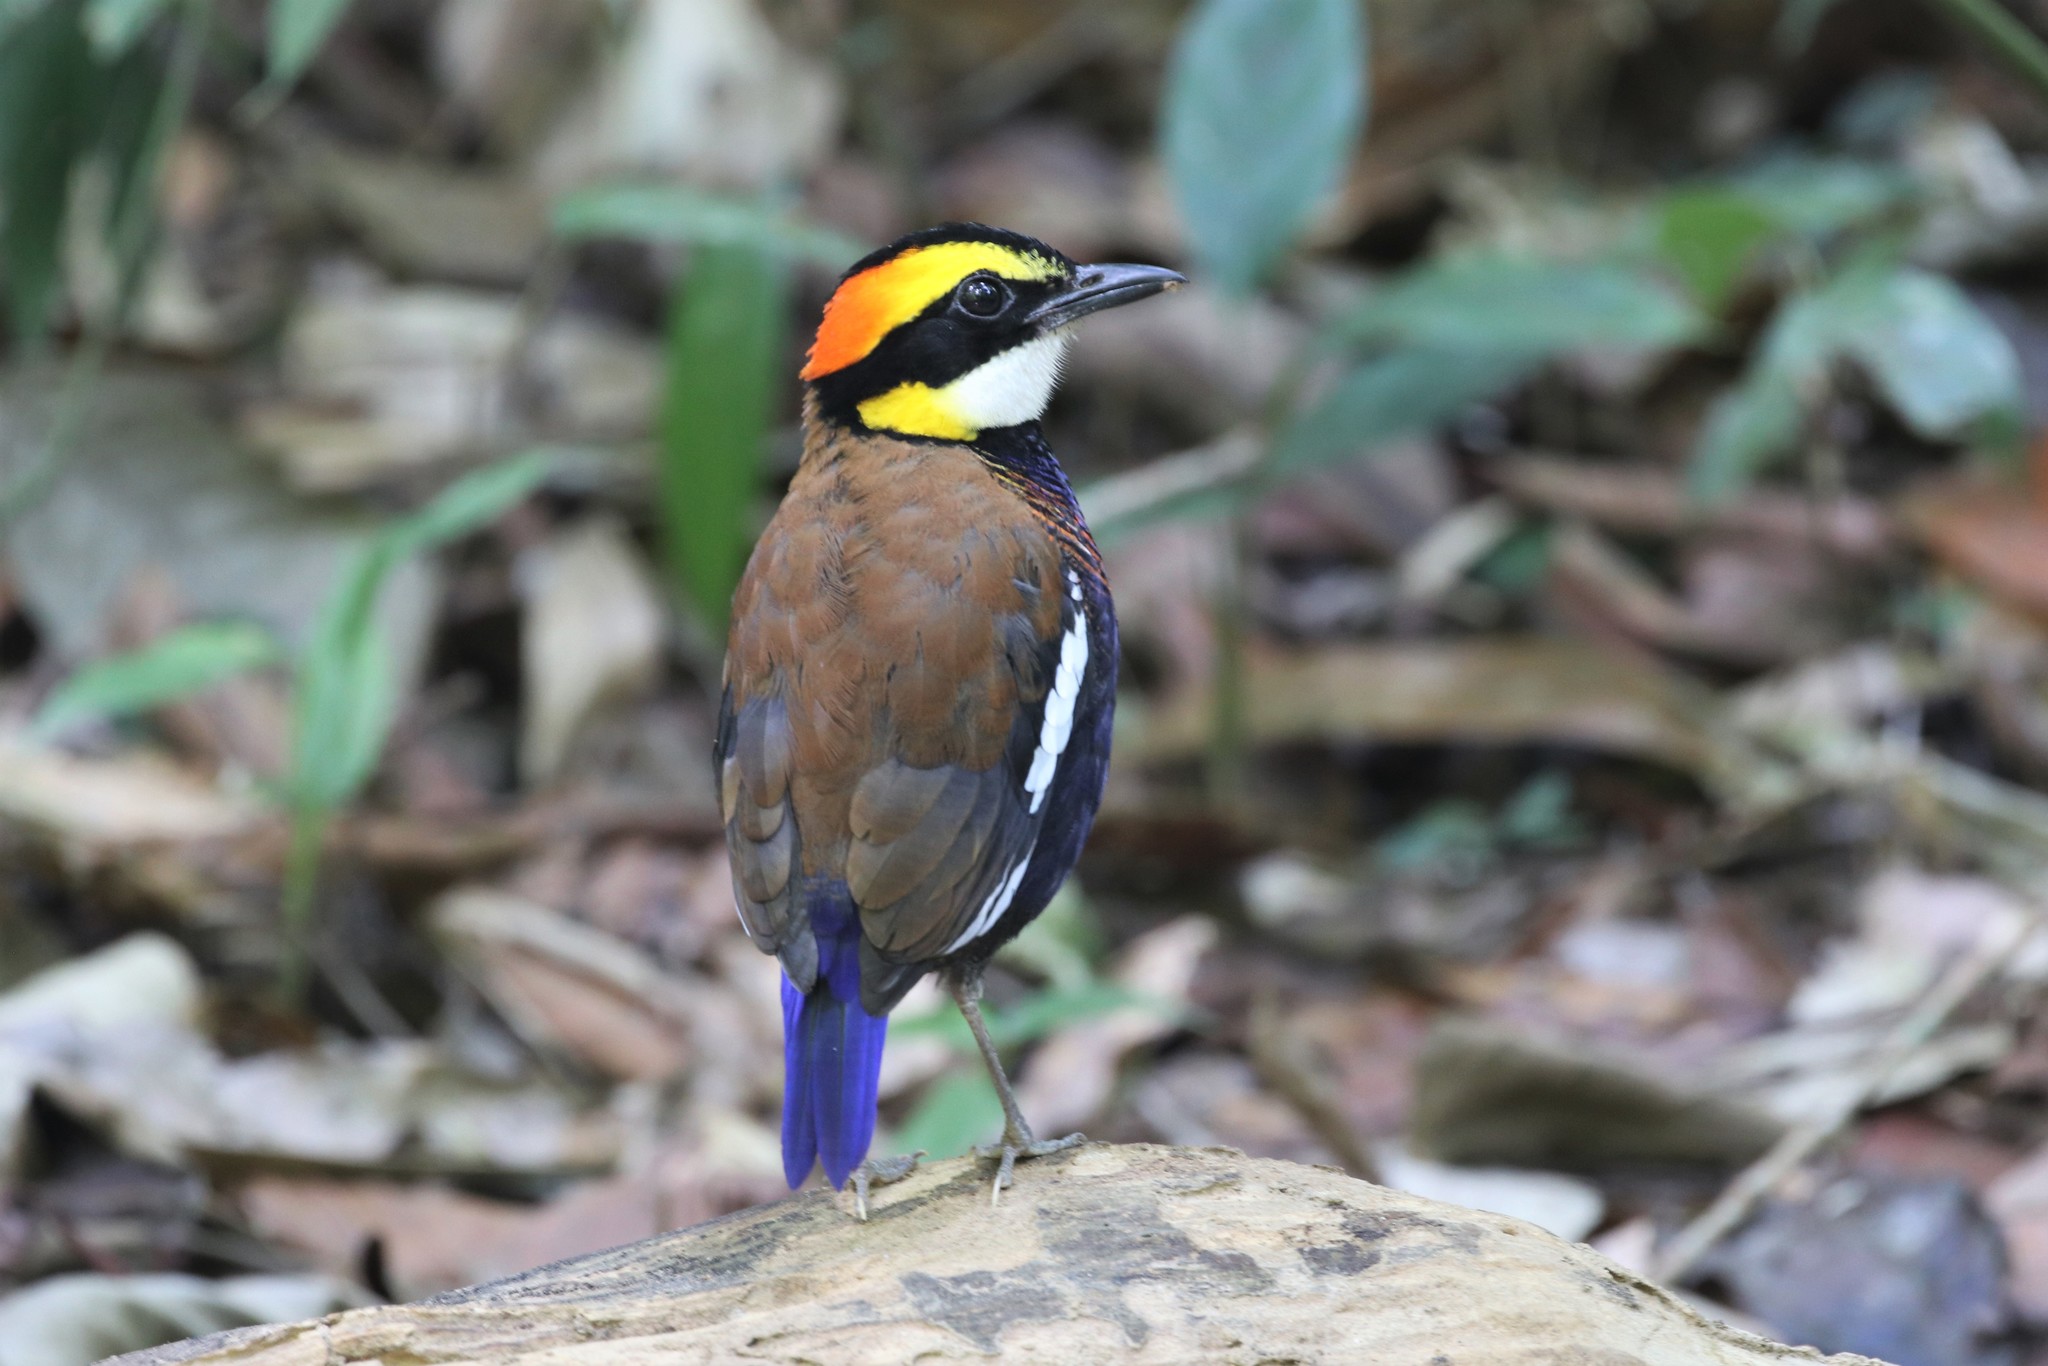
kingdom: Animalia
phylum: Chordata
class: Aves
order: Passeriformes
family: Pittidae
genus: Hydrornis
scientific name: Hydrornis irena
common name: Malayan banded pitta
